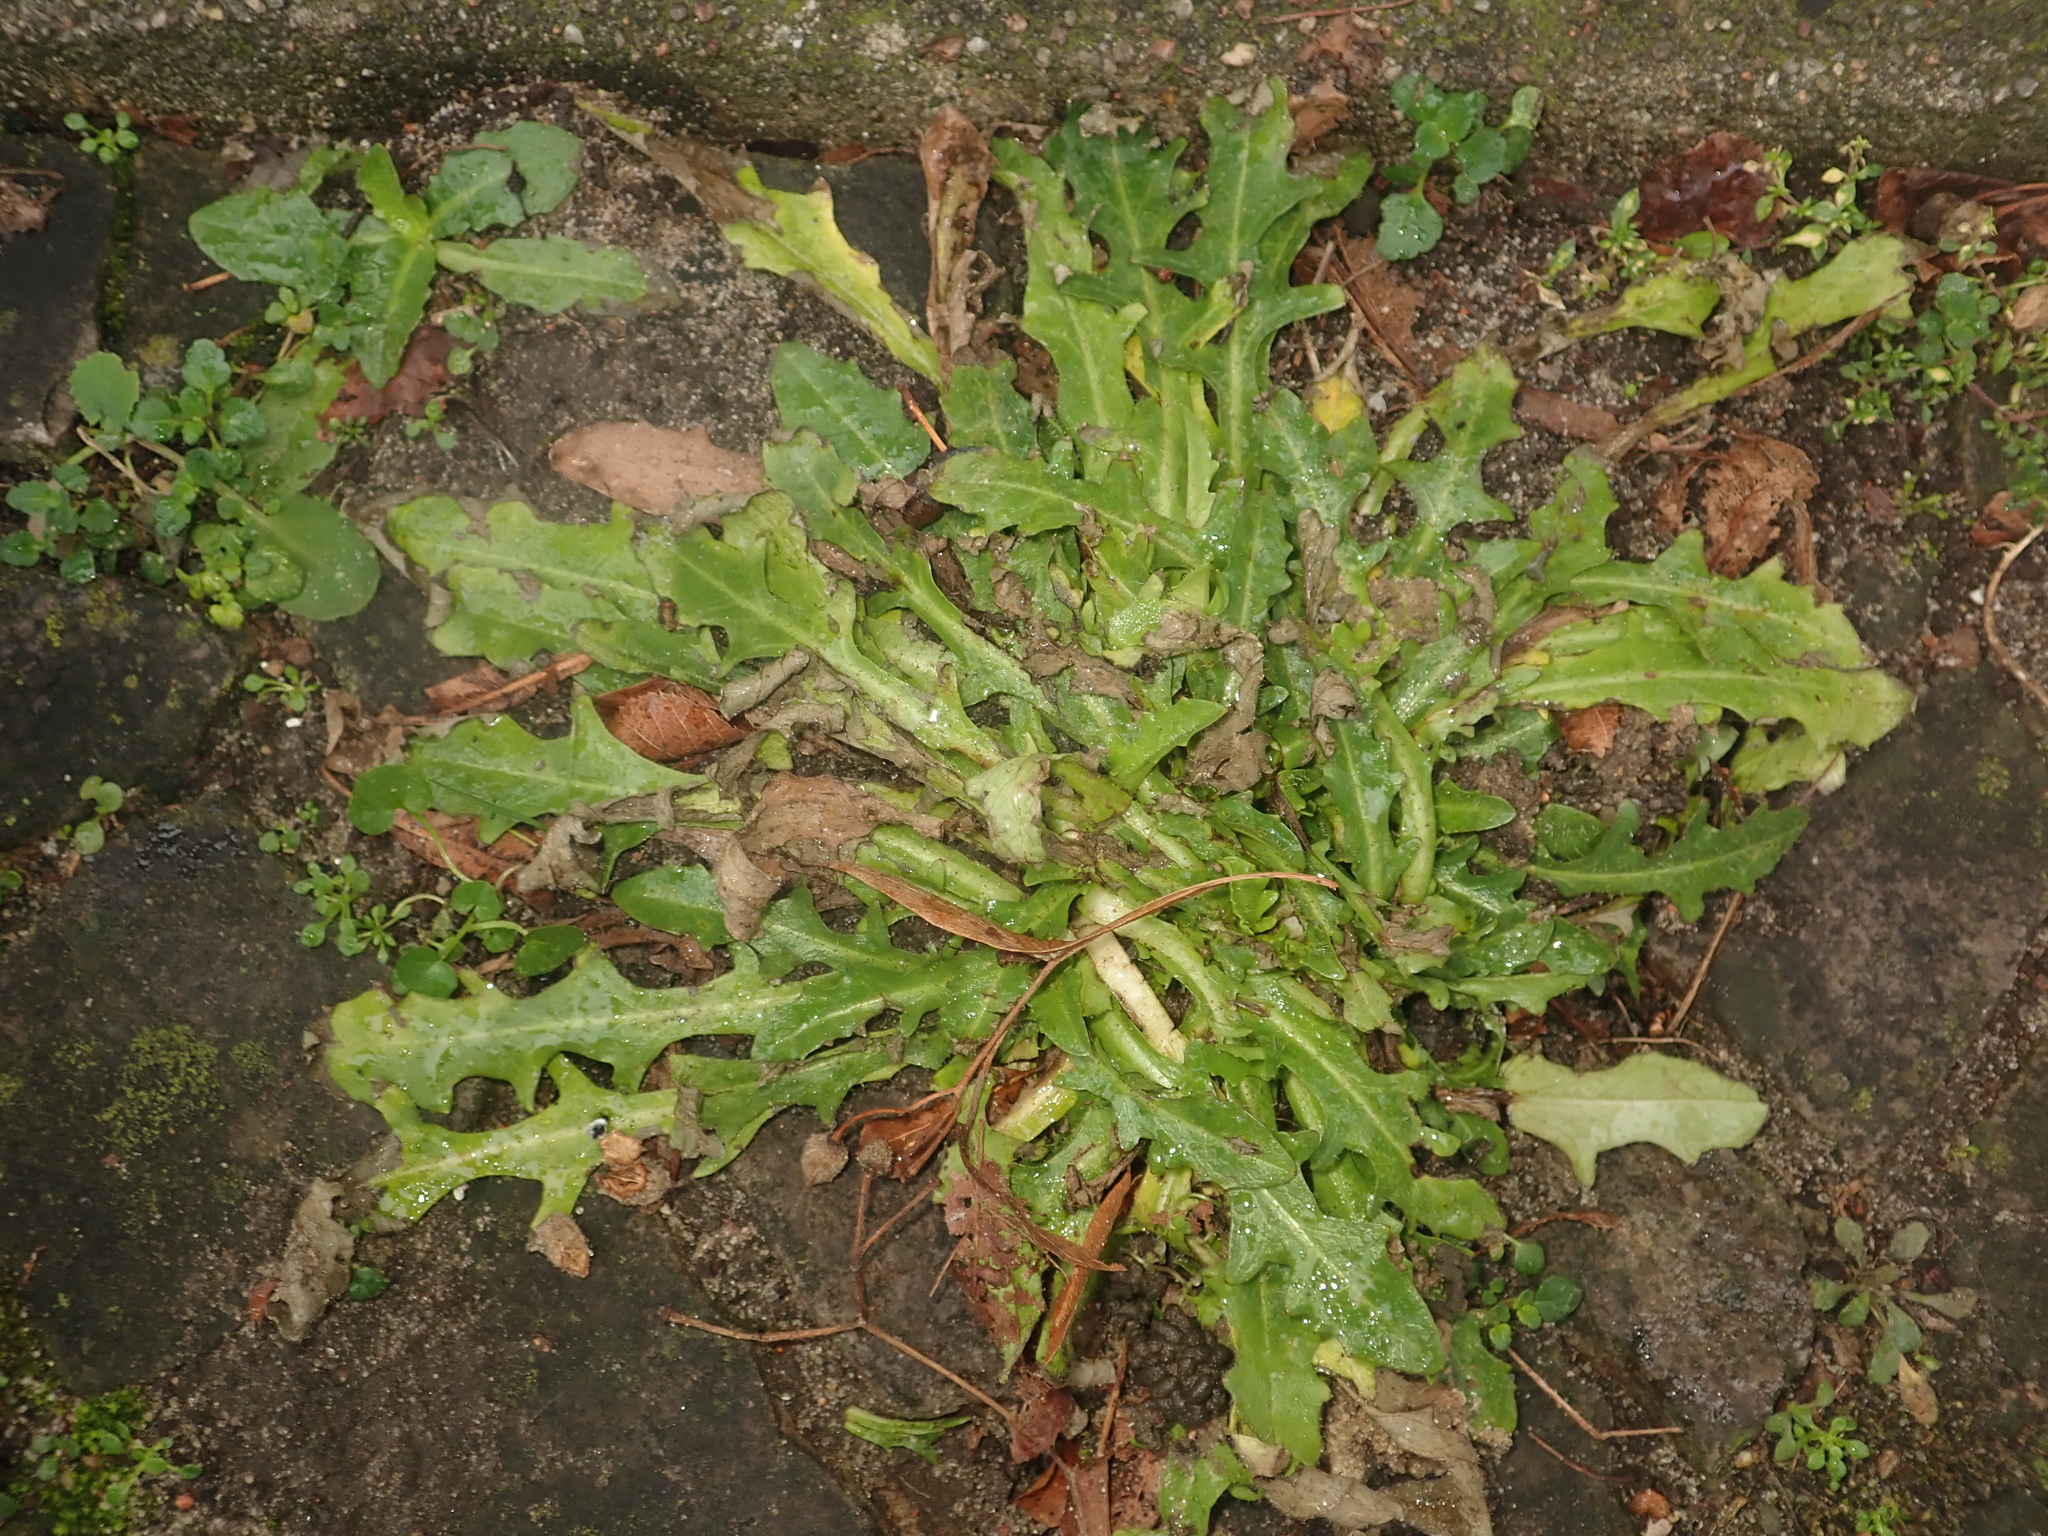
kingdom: Plantae
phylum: Tracheophyta
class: Magnoliopsida
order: Asterales
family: Asteraceae
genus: Hypochaeris
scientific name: Hypochaeris radicata
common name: Flatweed
